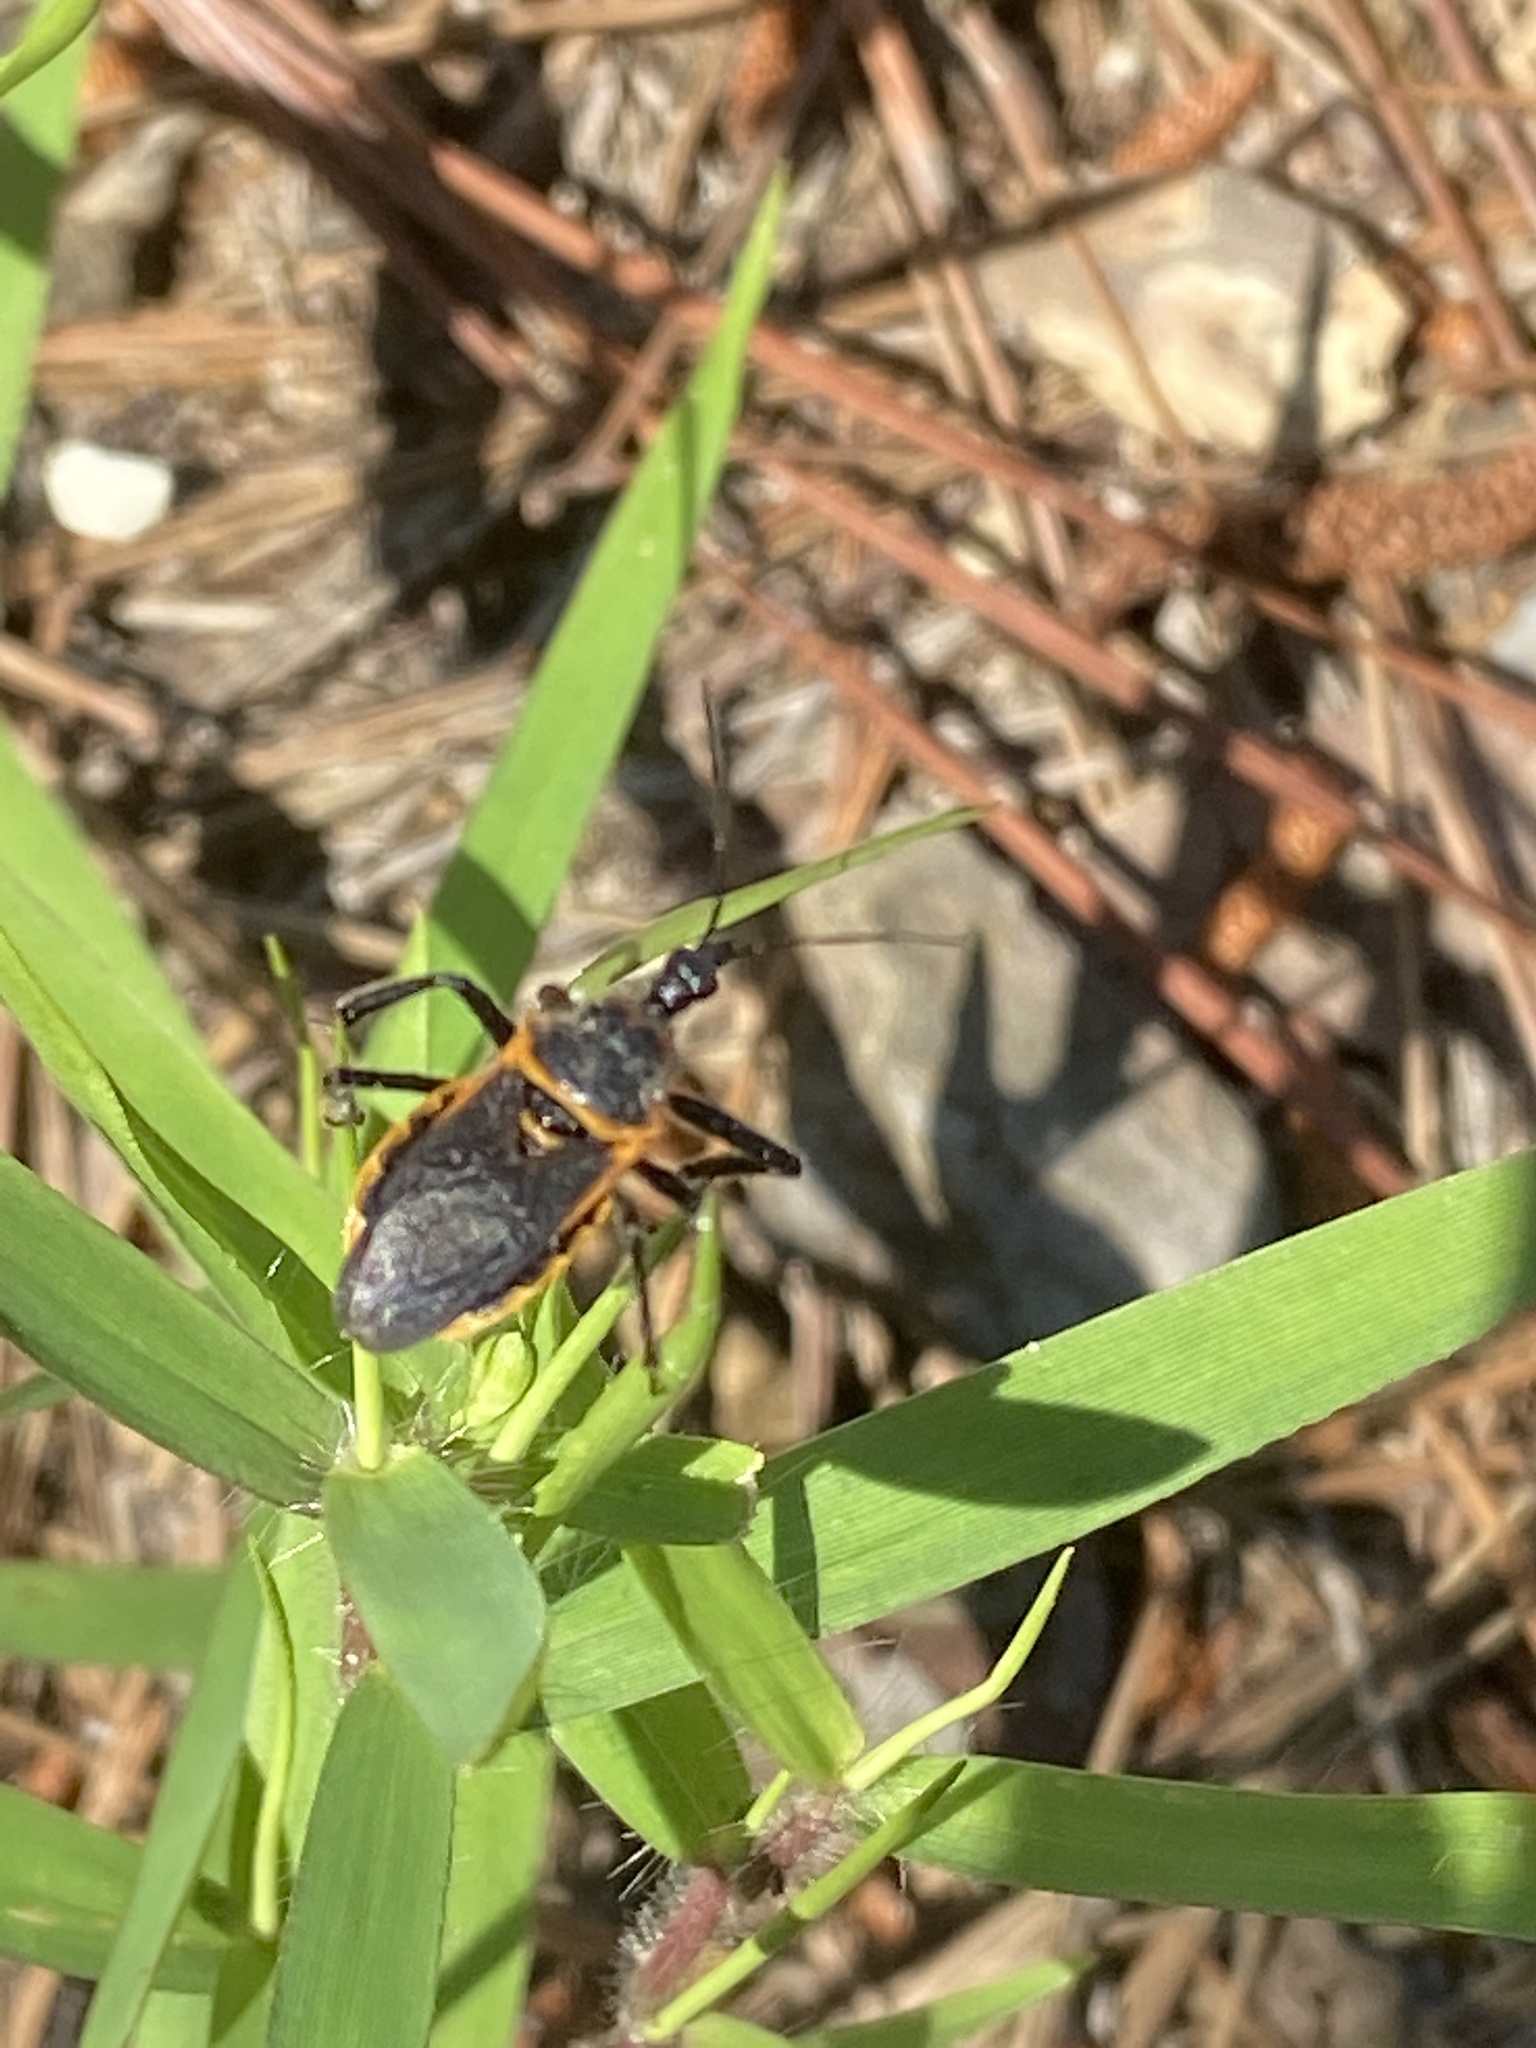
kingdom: Animalia
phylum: Arthropoda
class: Insecta
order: Hemiptera
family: Reduviidae
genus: Apiomerus
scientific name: Apiomerus crassipes
